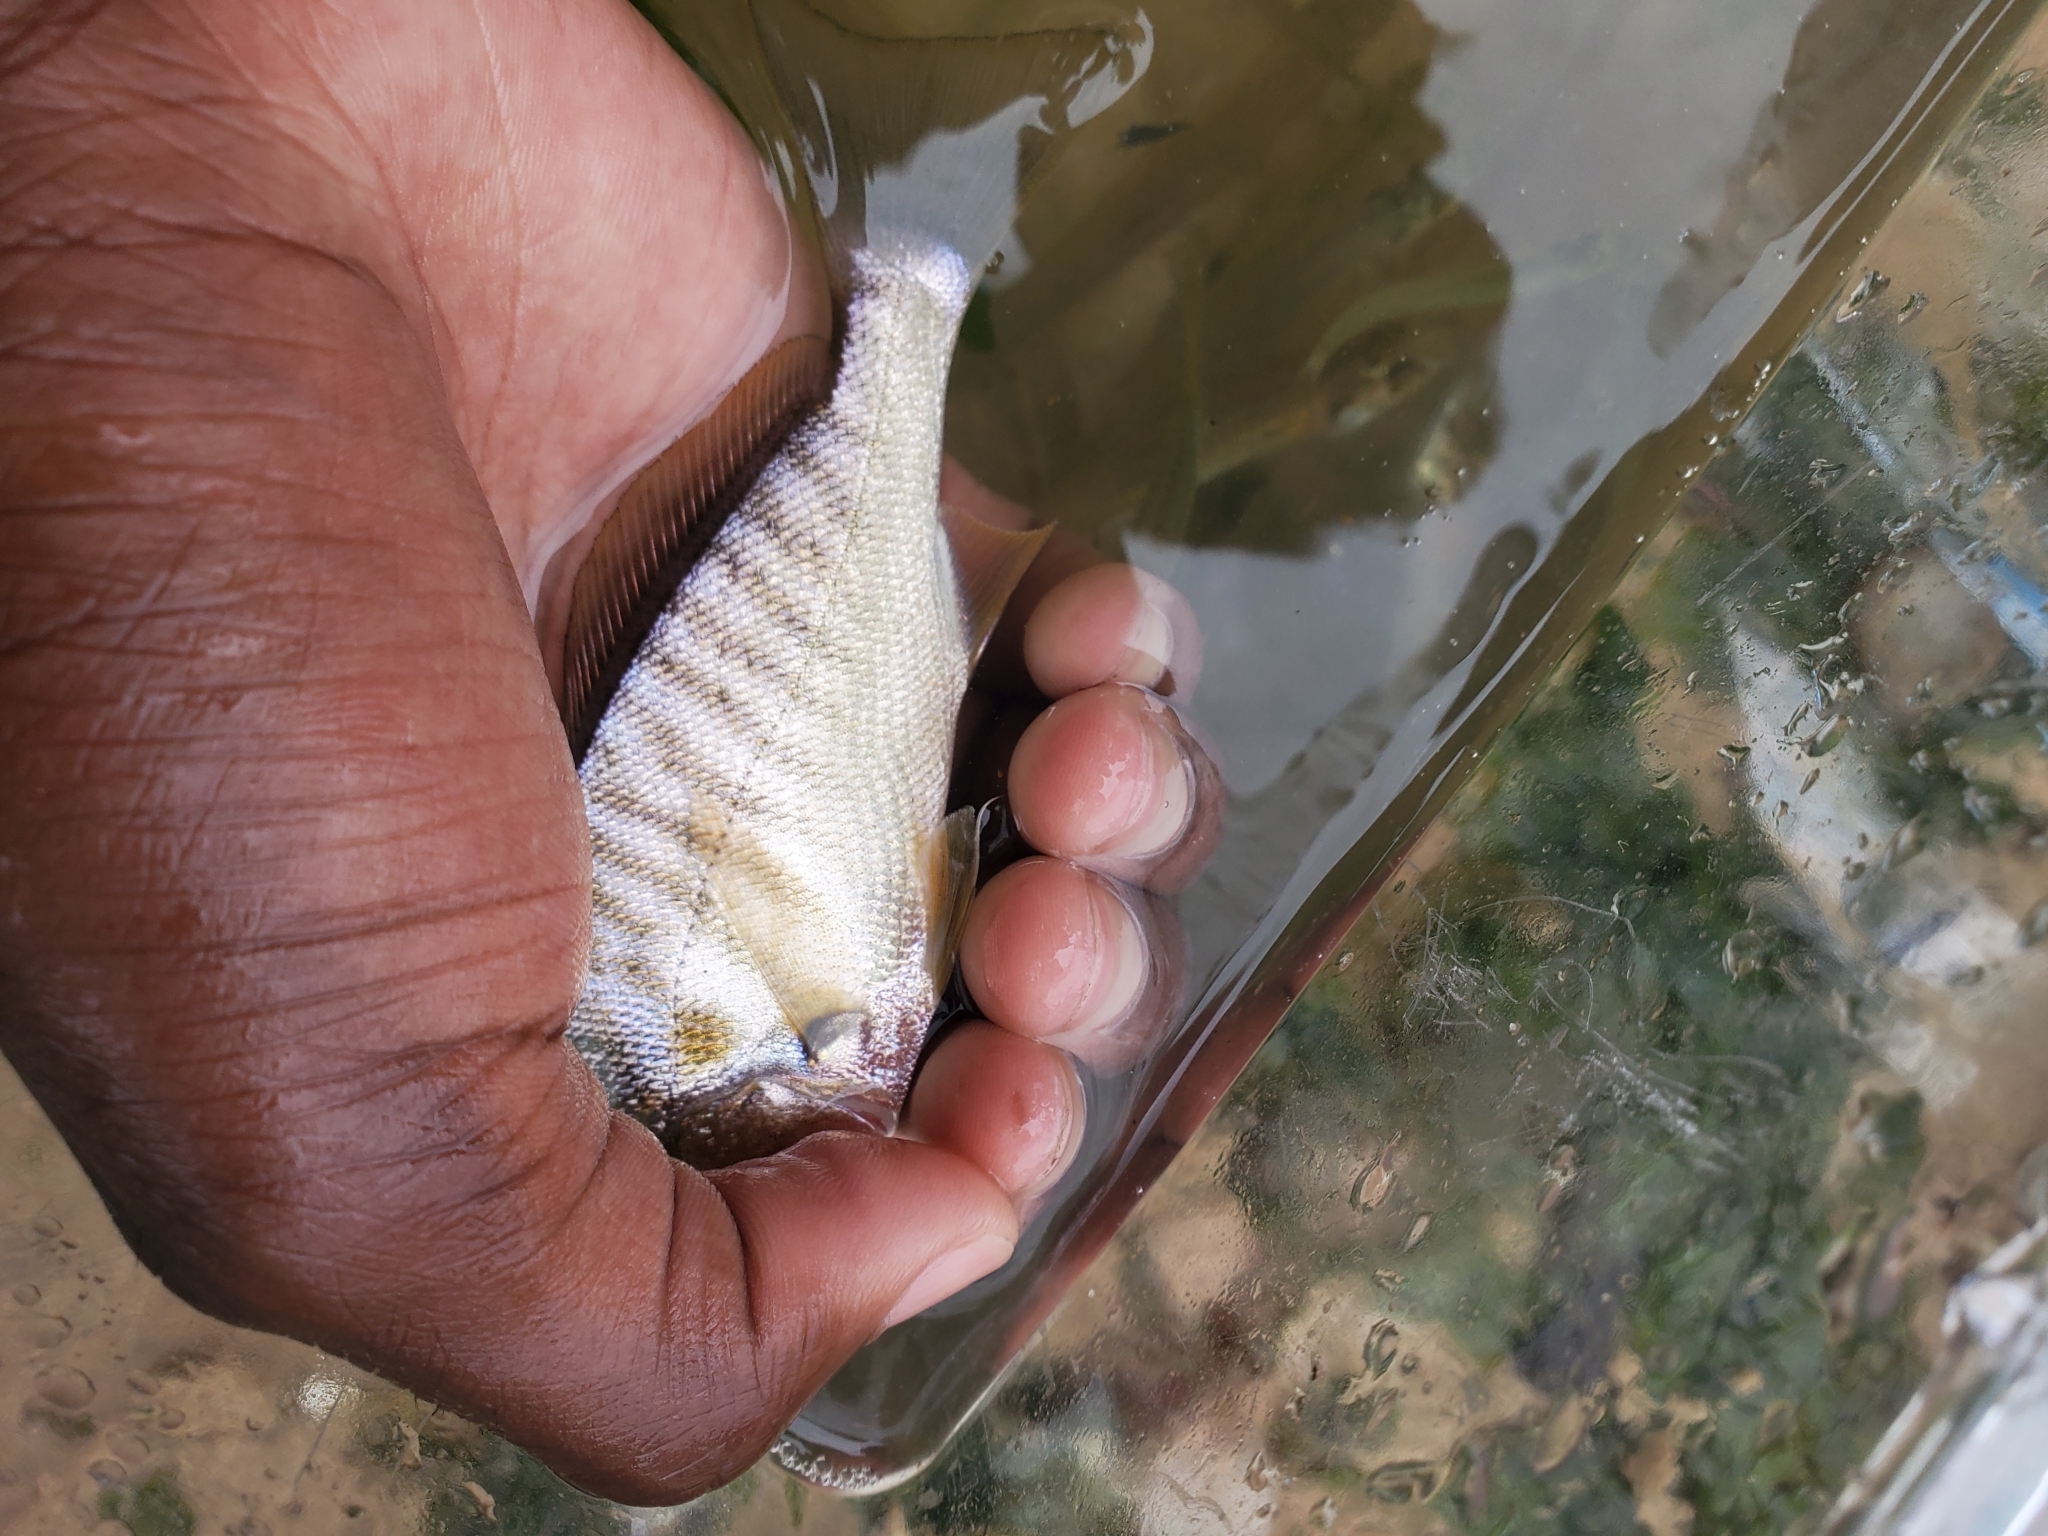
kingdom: Animalia
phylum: Chordata
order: Perciformes
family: Sciaenidae
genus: Leiostomus
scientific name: Leiostomus xanthurus
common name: Spot
